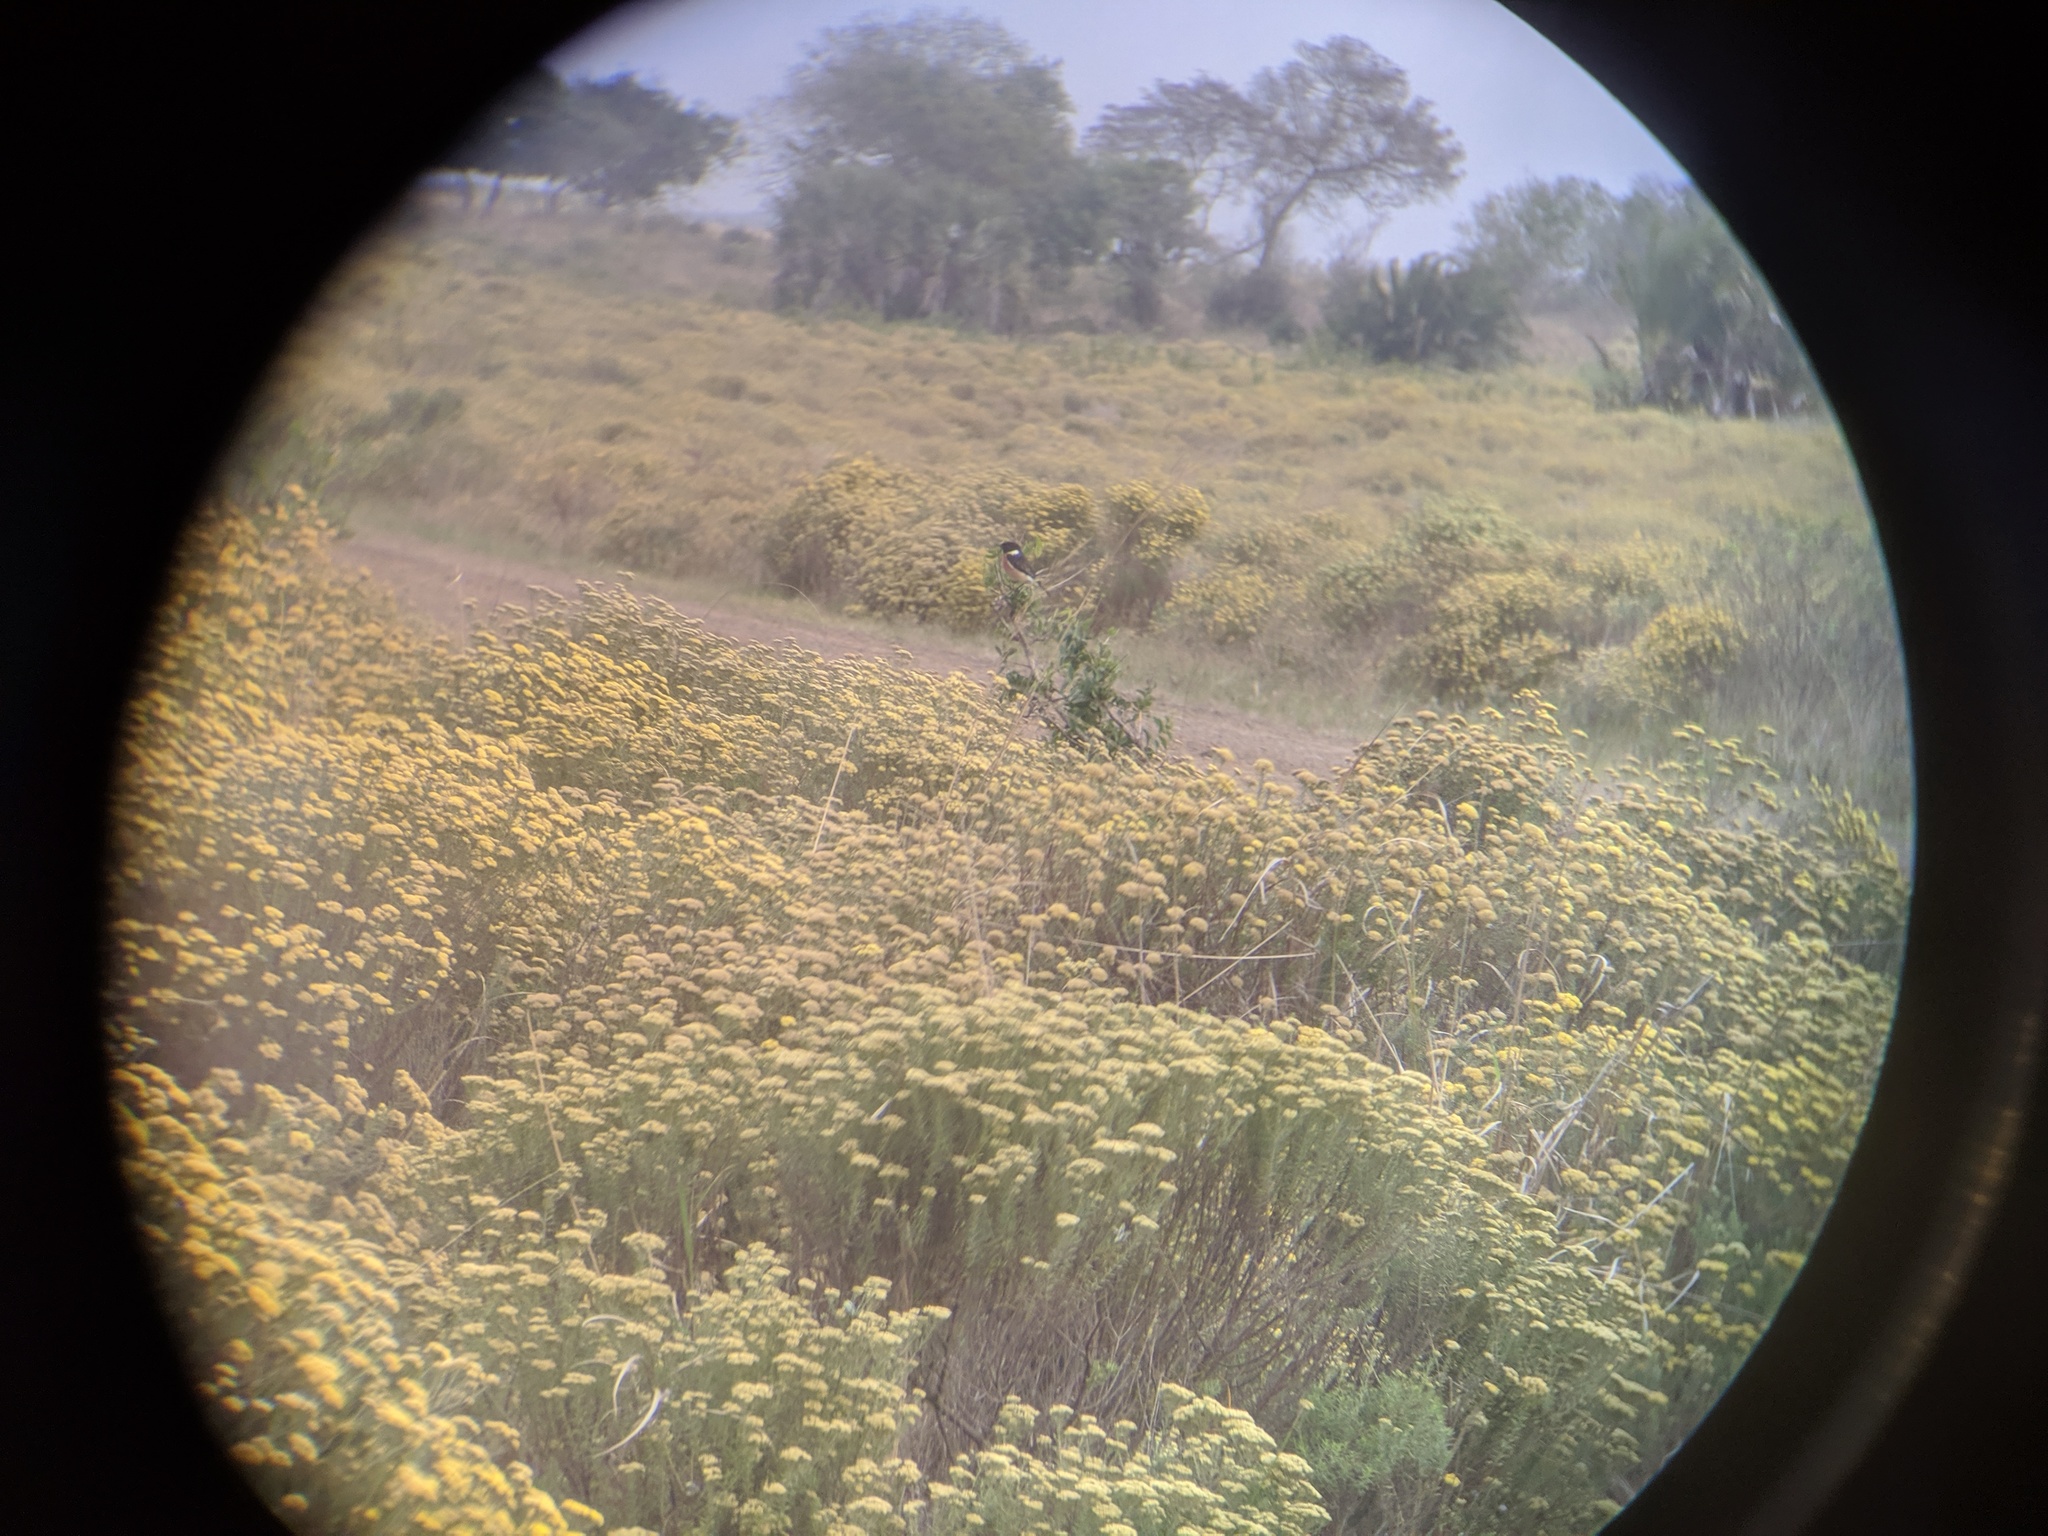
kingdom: Animalia
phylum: Chordata
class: Aves
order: Passeriformes
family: Muscicapidae
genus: Saxicola
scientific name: Saxicola torquatus
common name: African stonechat
